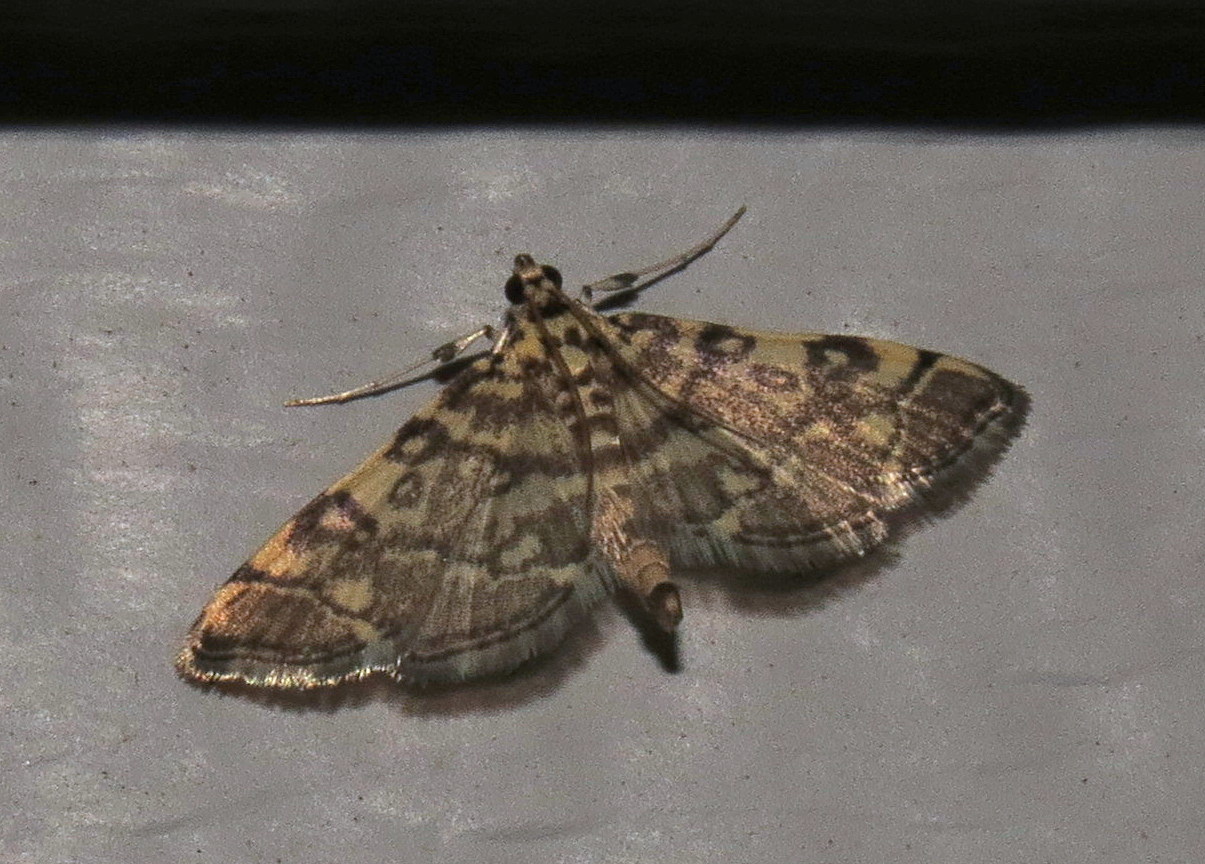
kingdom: Animalia
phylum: Arthropoda
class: Insecta
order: Lepidoptera
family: Crambidae
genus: Apogeshna
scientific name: Apogeshna stenialis
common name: Checkered apogeshna moth
